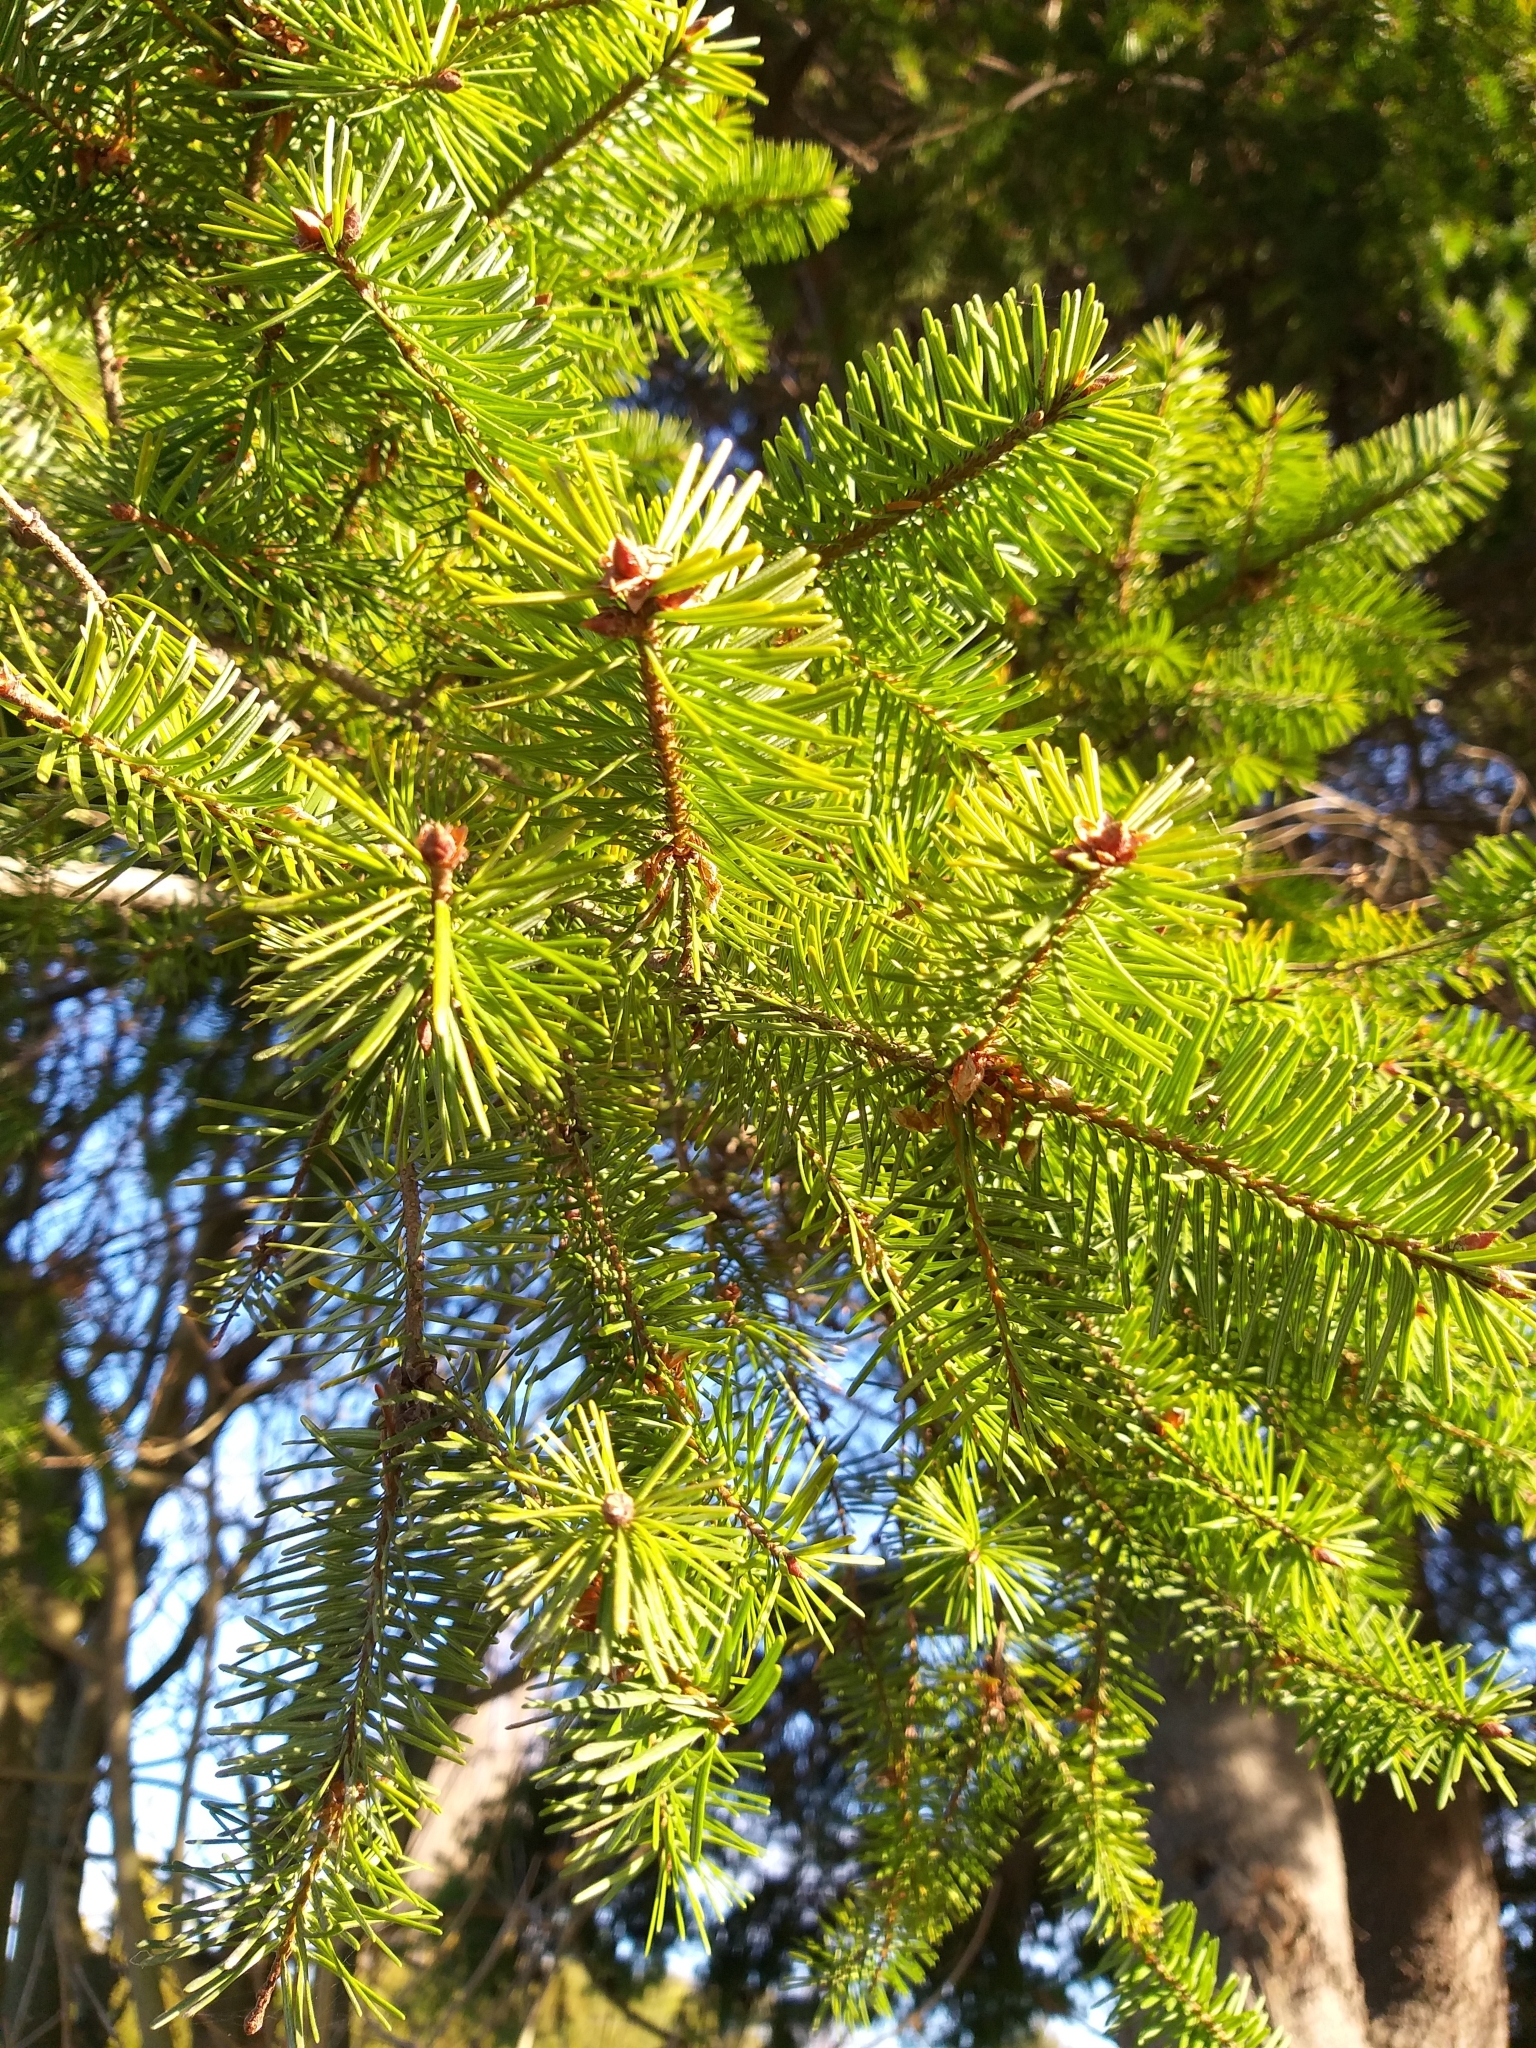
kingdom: Plantae
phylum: Tracheophyta
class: Pinopsida
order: Pinales
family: Pinaceae
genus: Pseudotsuga
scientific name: Pseudotsuga menziesii
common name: Douglas fir
